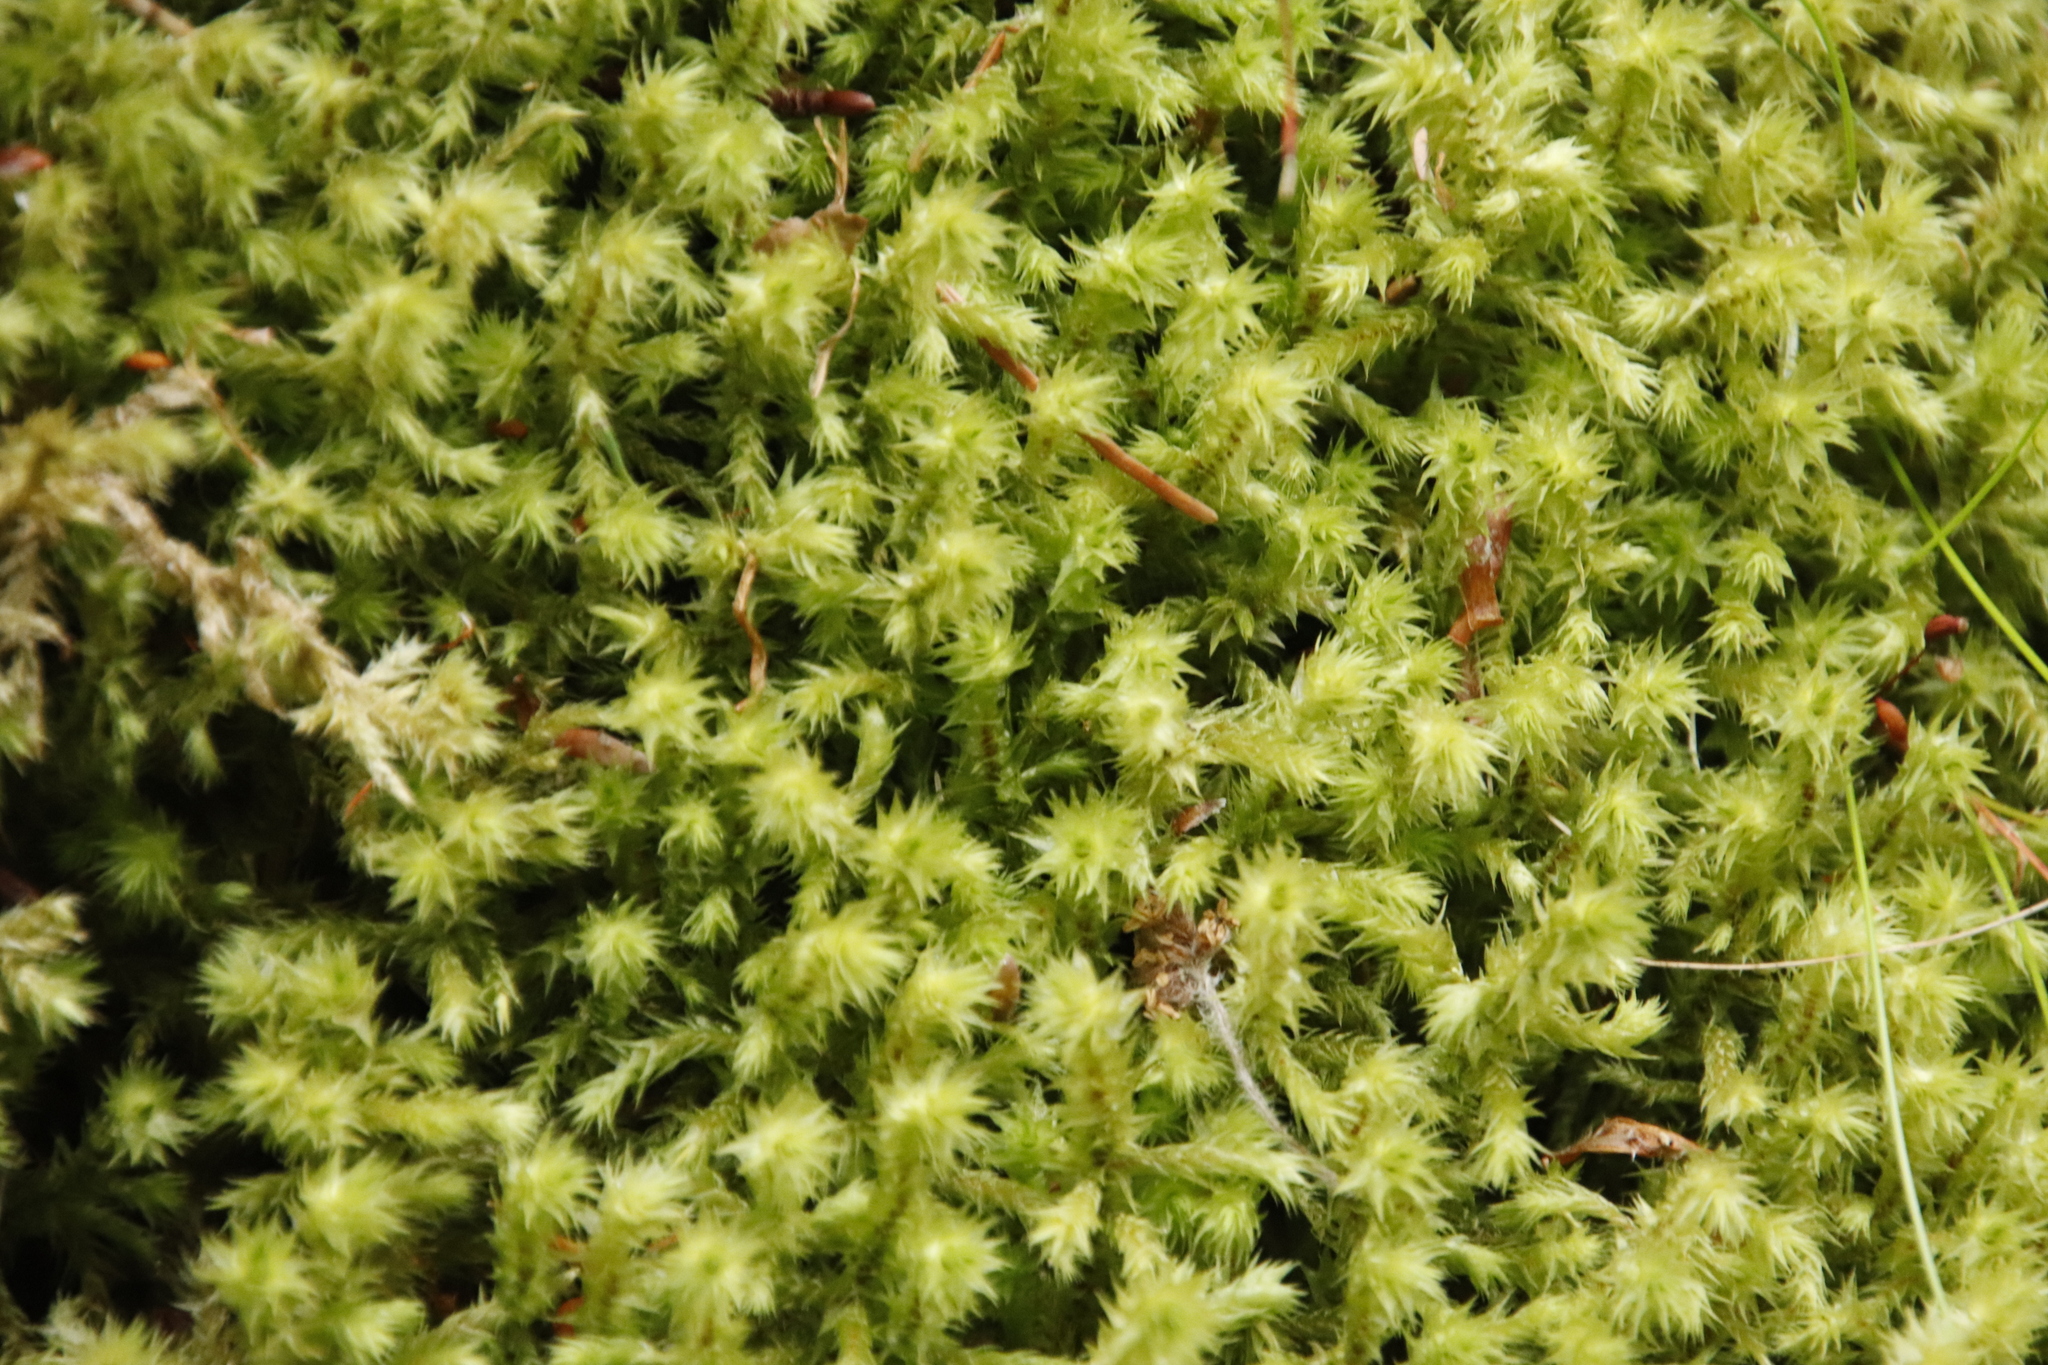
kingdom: Plantae
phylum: Bryophyta
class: Bryopsida
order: Hypnales
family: Hylocomiaceae
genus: Hylocomiadelphus
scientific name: Hylocomiadelphus triquetrus
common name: Rough goose neck moss
